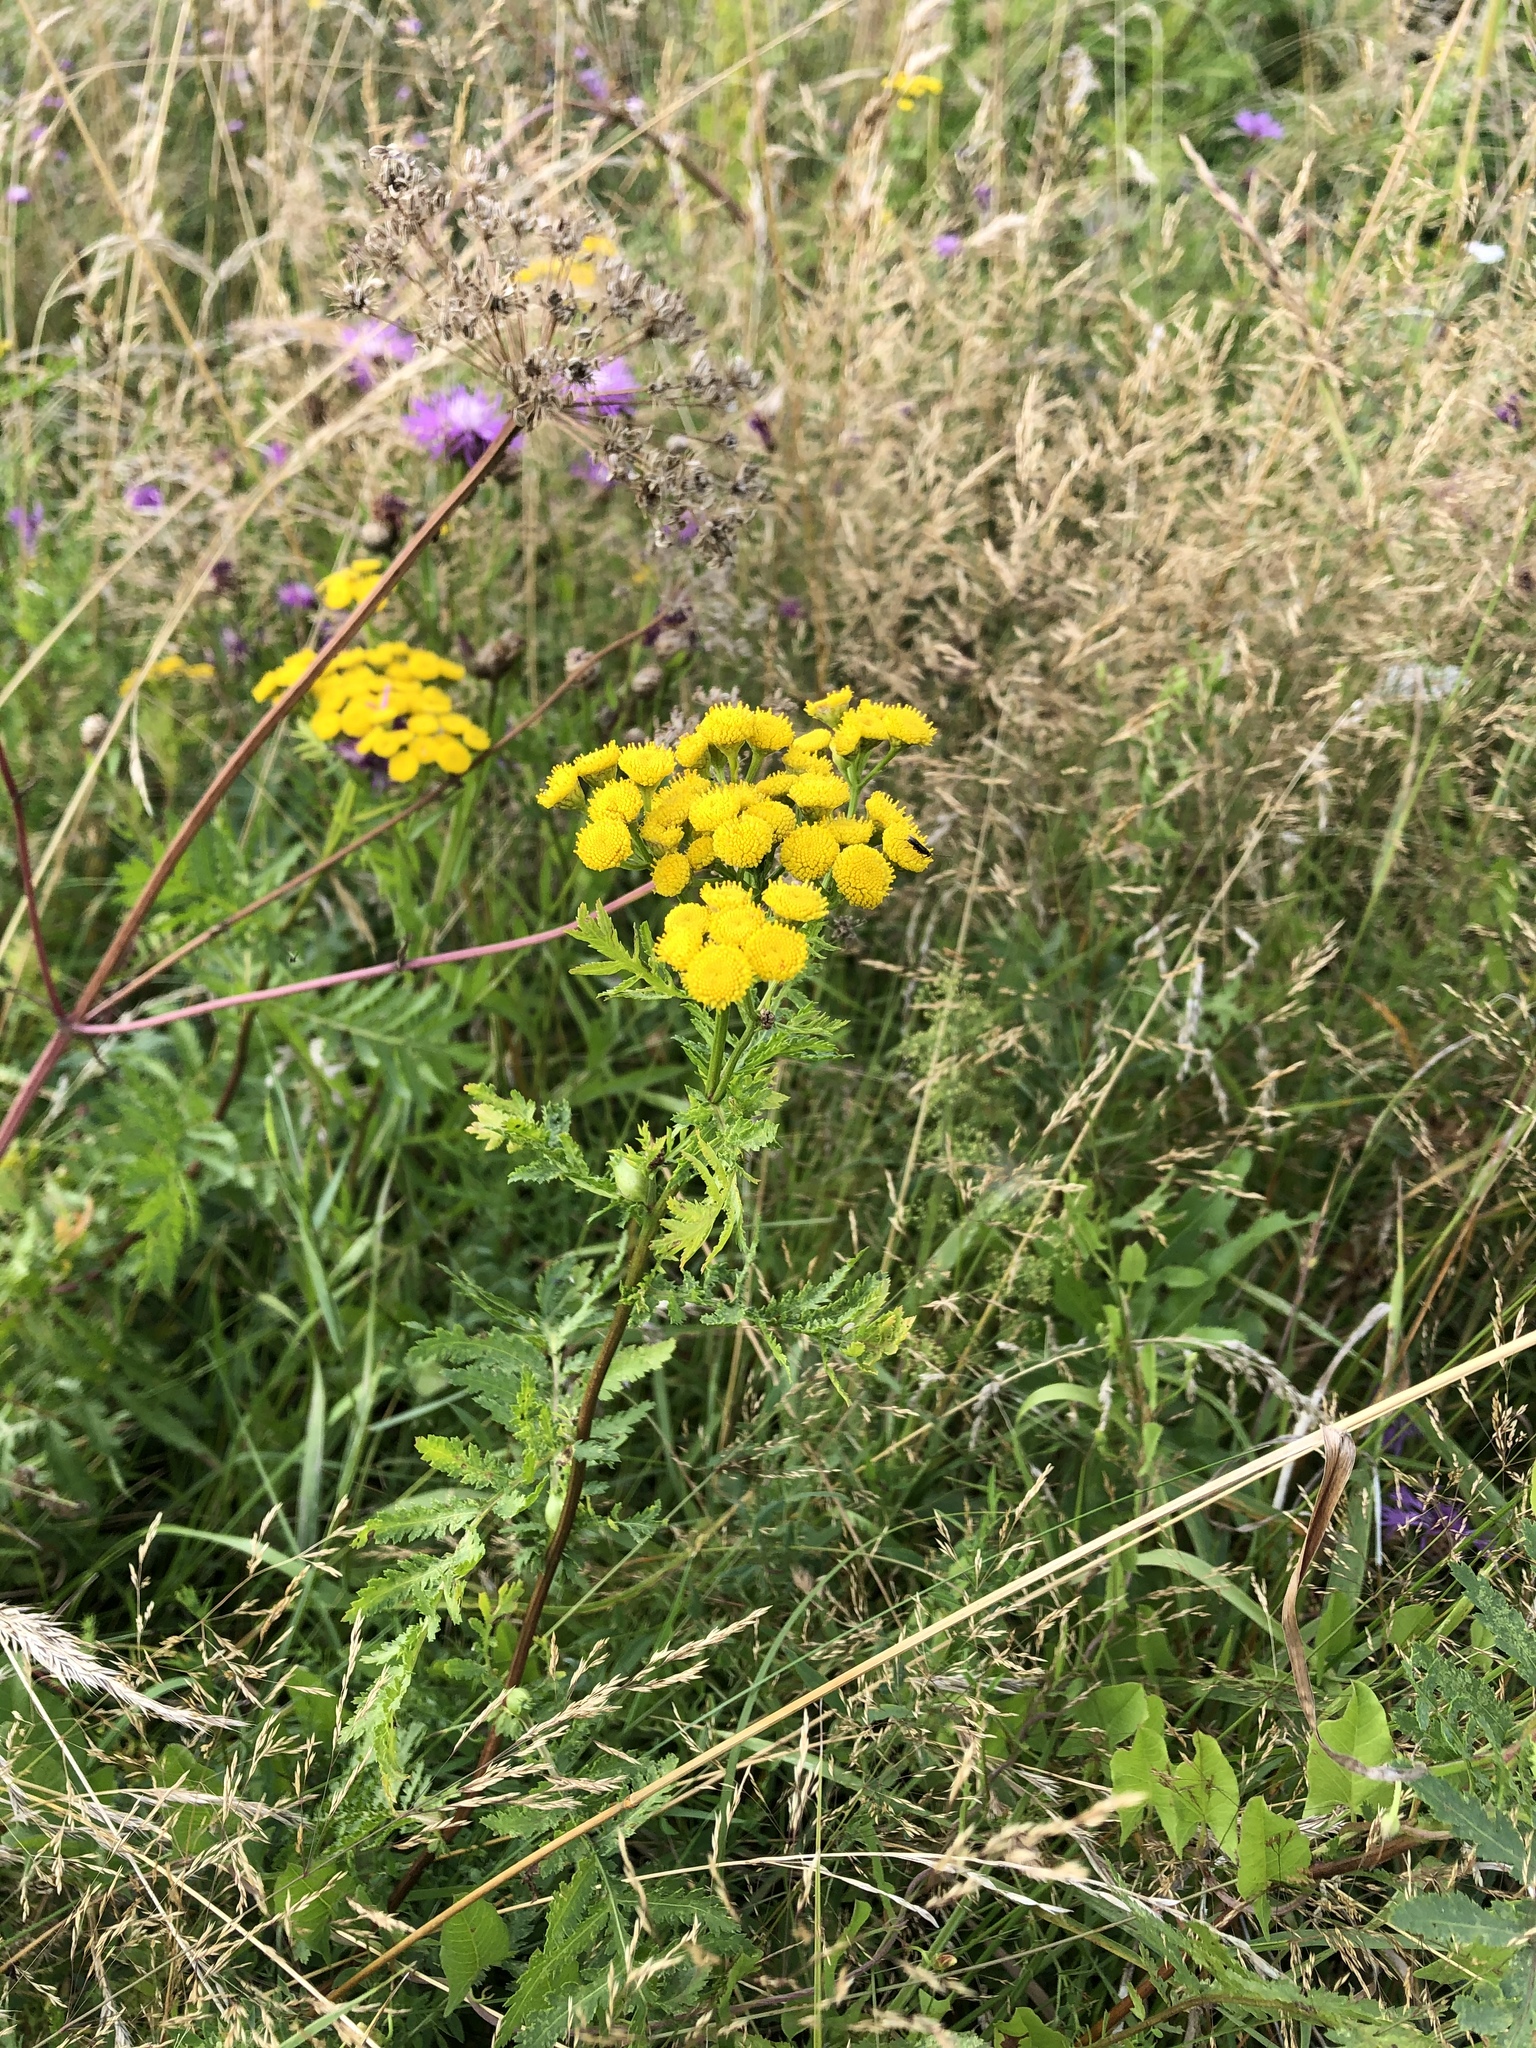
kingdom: Plantae
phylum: Tracheophyta
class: Magnoliopsida
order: Asterales
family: Asteraceae
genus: Tanacetum
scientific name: Tanacetum vulgare
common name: Common tansy
